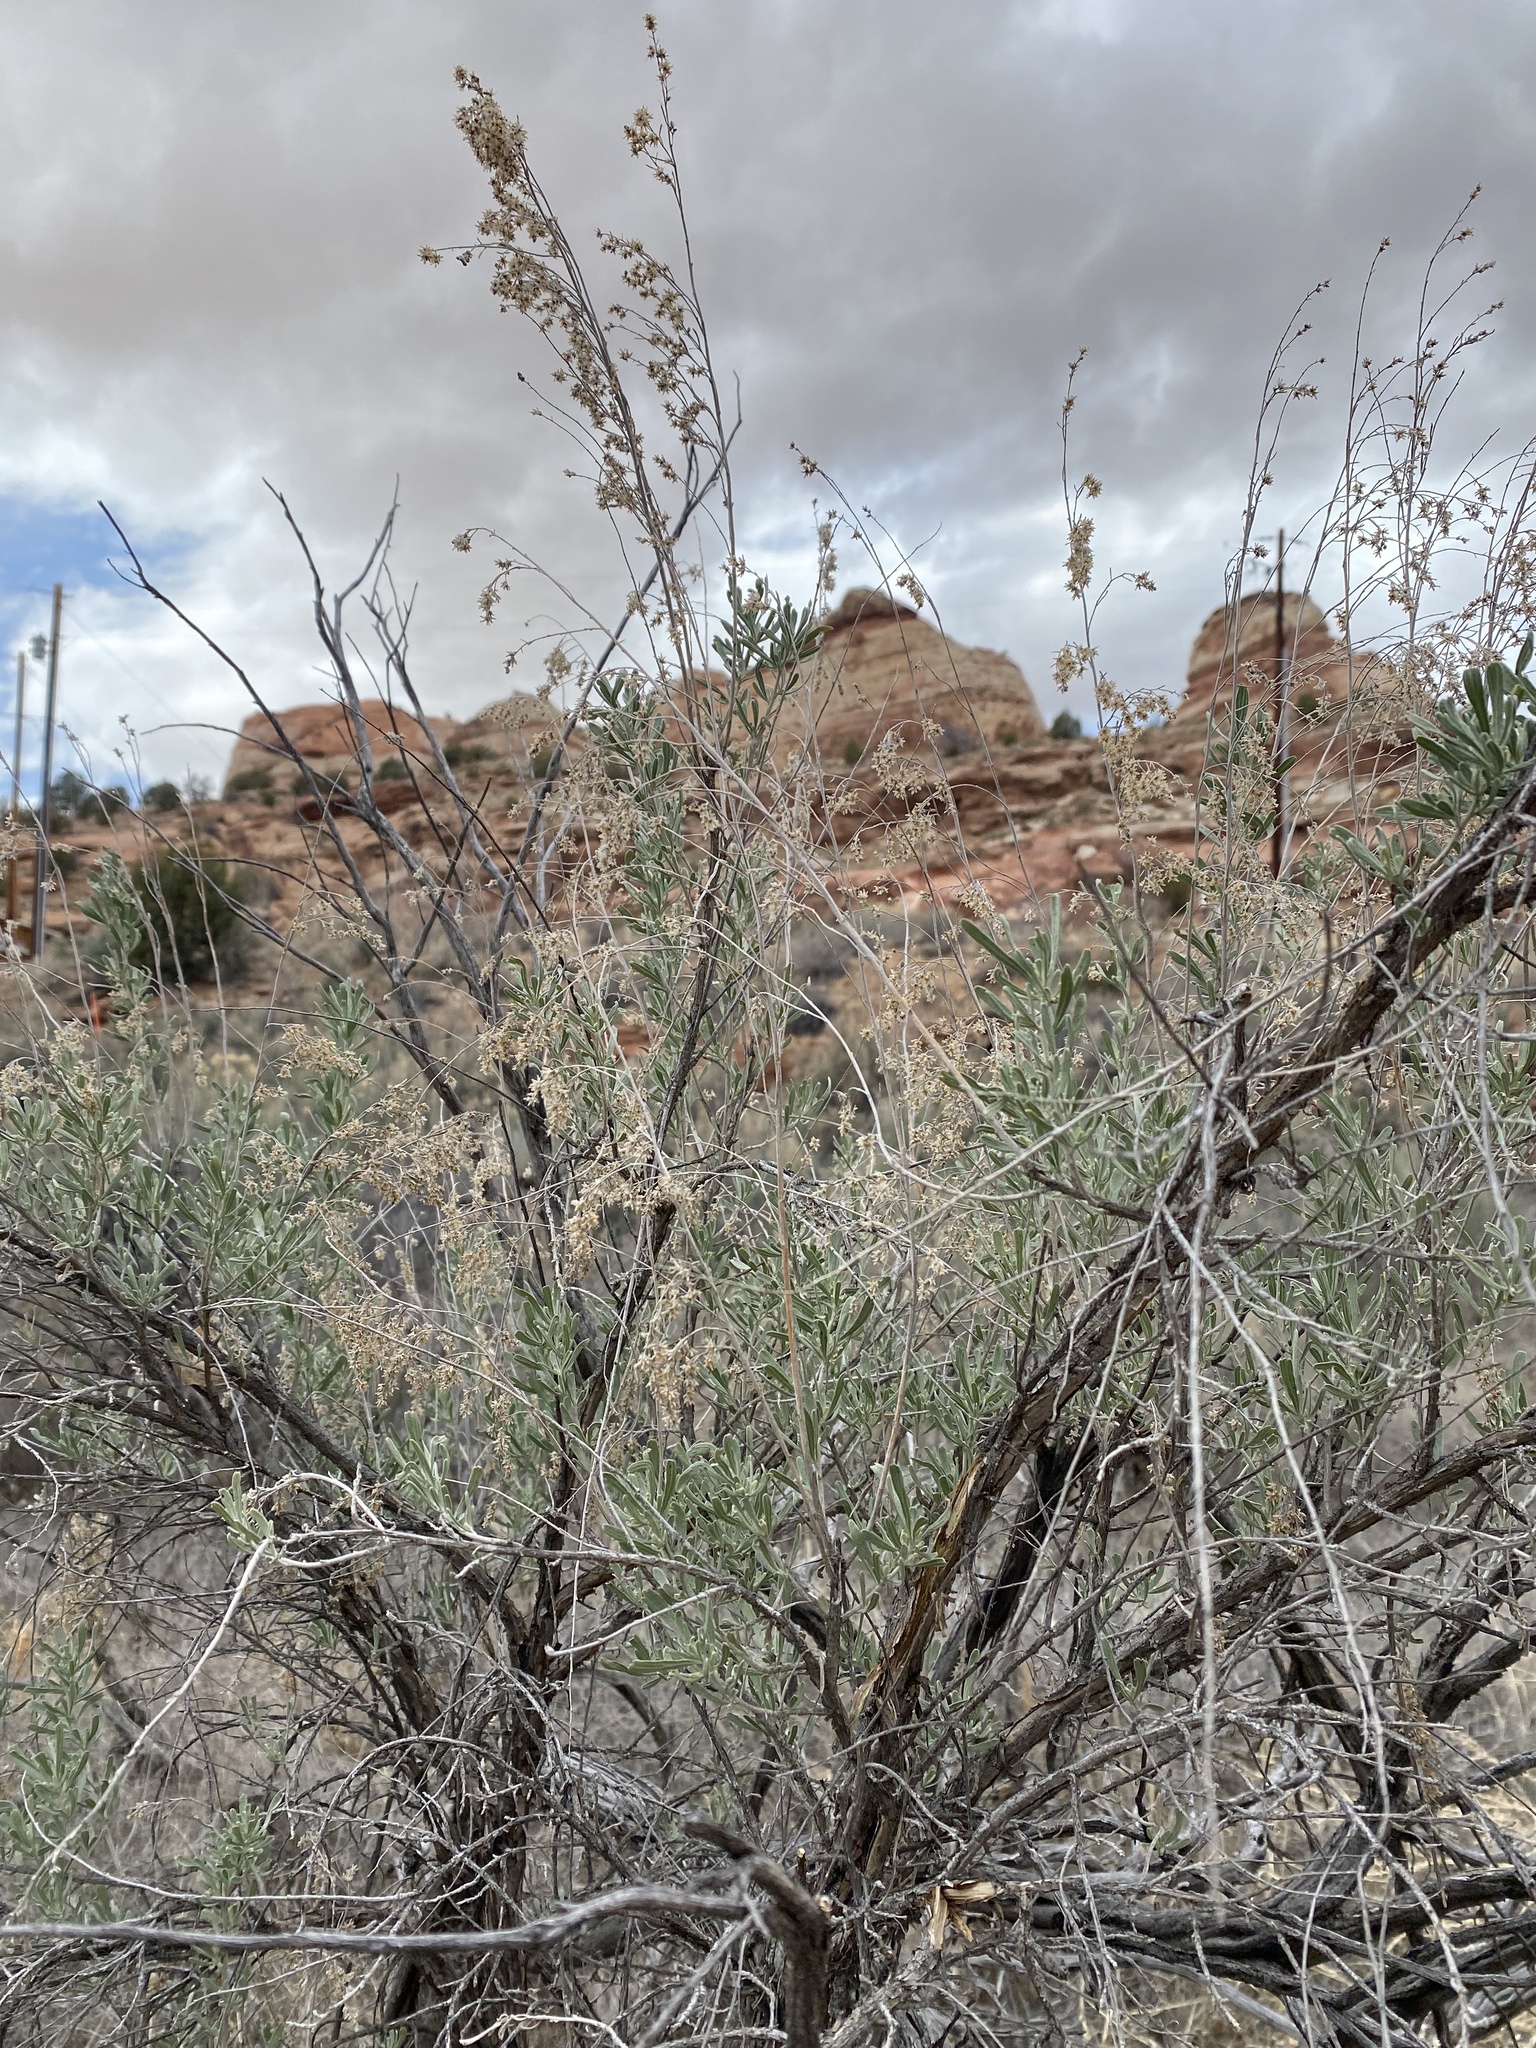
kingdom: Plantae
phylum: Tracheophyta
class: Magnoliopsida
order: Asterales
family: Asteraceae
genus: Artemisia
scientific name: Artemisia tridentata
